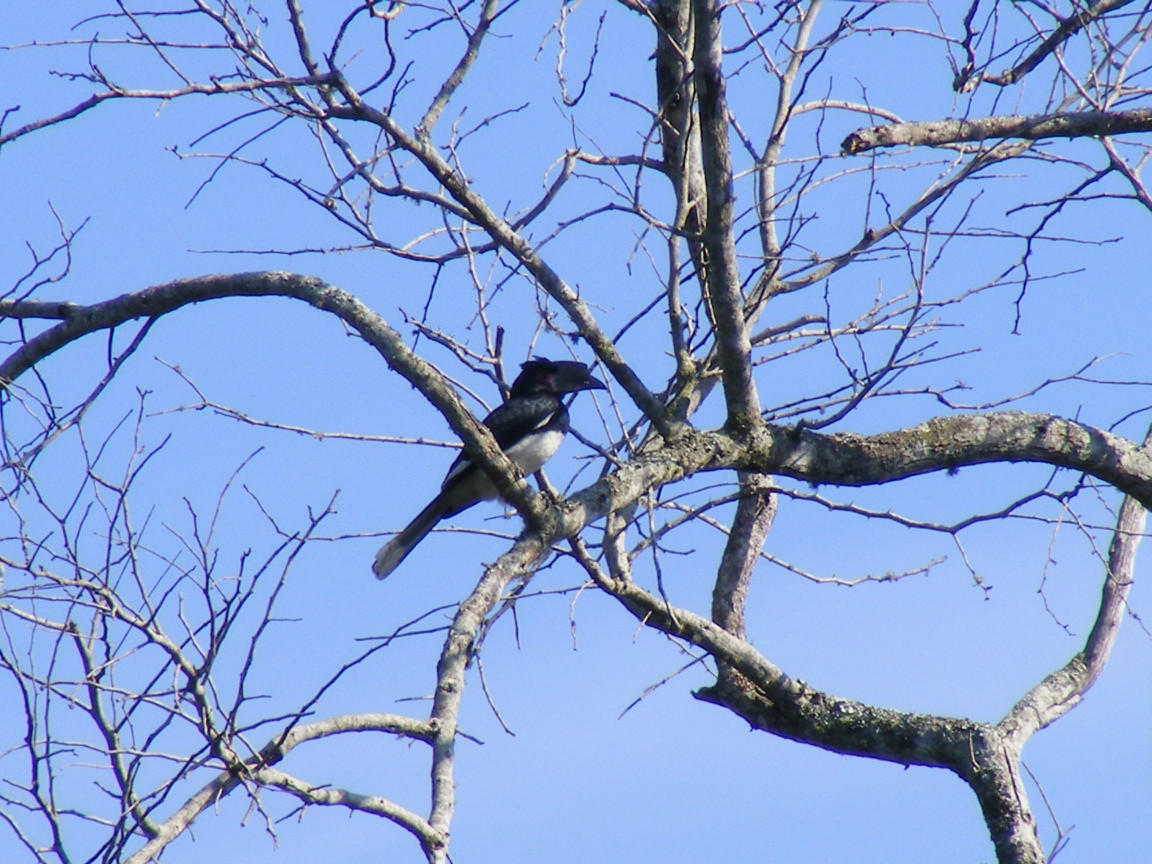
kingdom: Animalia
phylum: Chordata
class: Aves
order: Bucerotiformes
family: Bucerotidae
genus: Bycanistes
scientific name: Bycanistes bucinator
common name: Trumpeter hornbill
